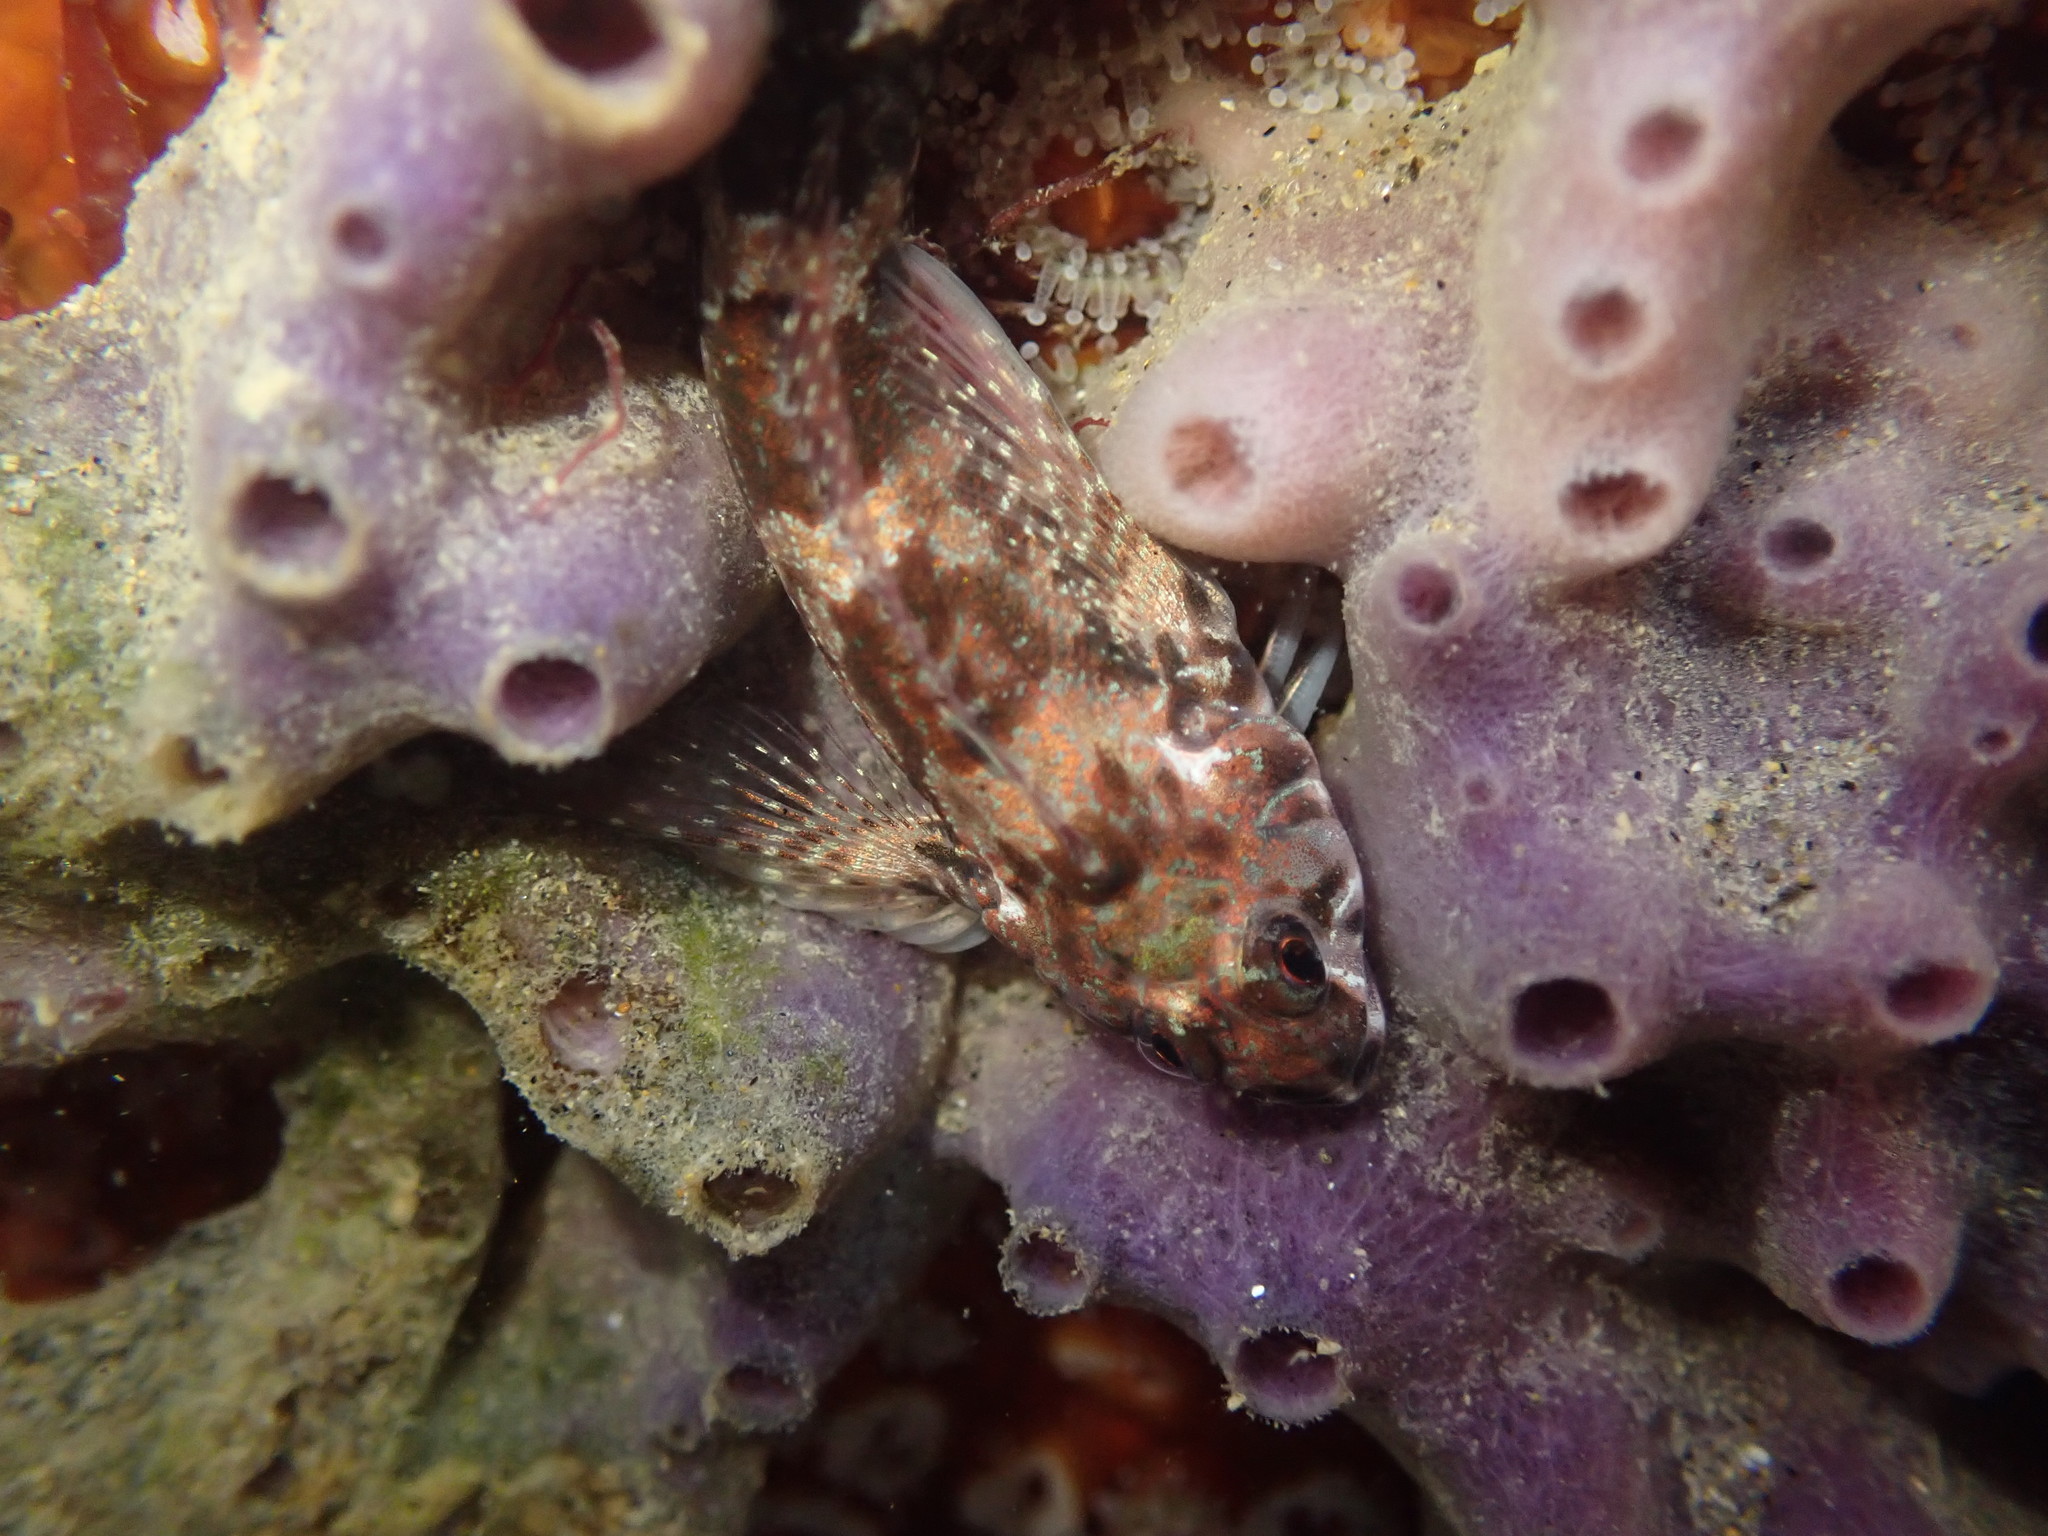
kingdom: Animalia
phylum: Chordata
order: Perciformes
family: Tripterygiidae
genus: Bellapiscis
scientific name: Bellapiscis lesleyae
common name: Mottled twister
